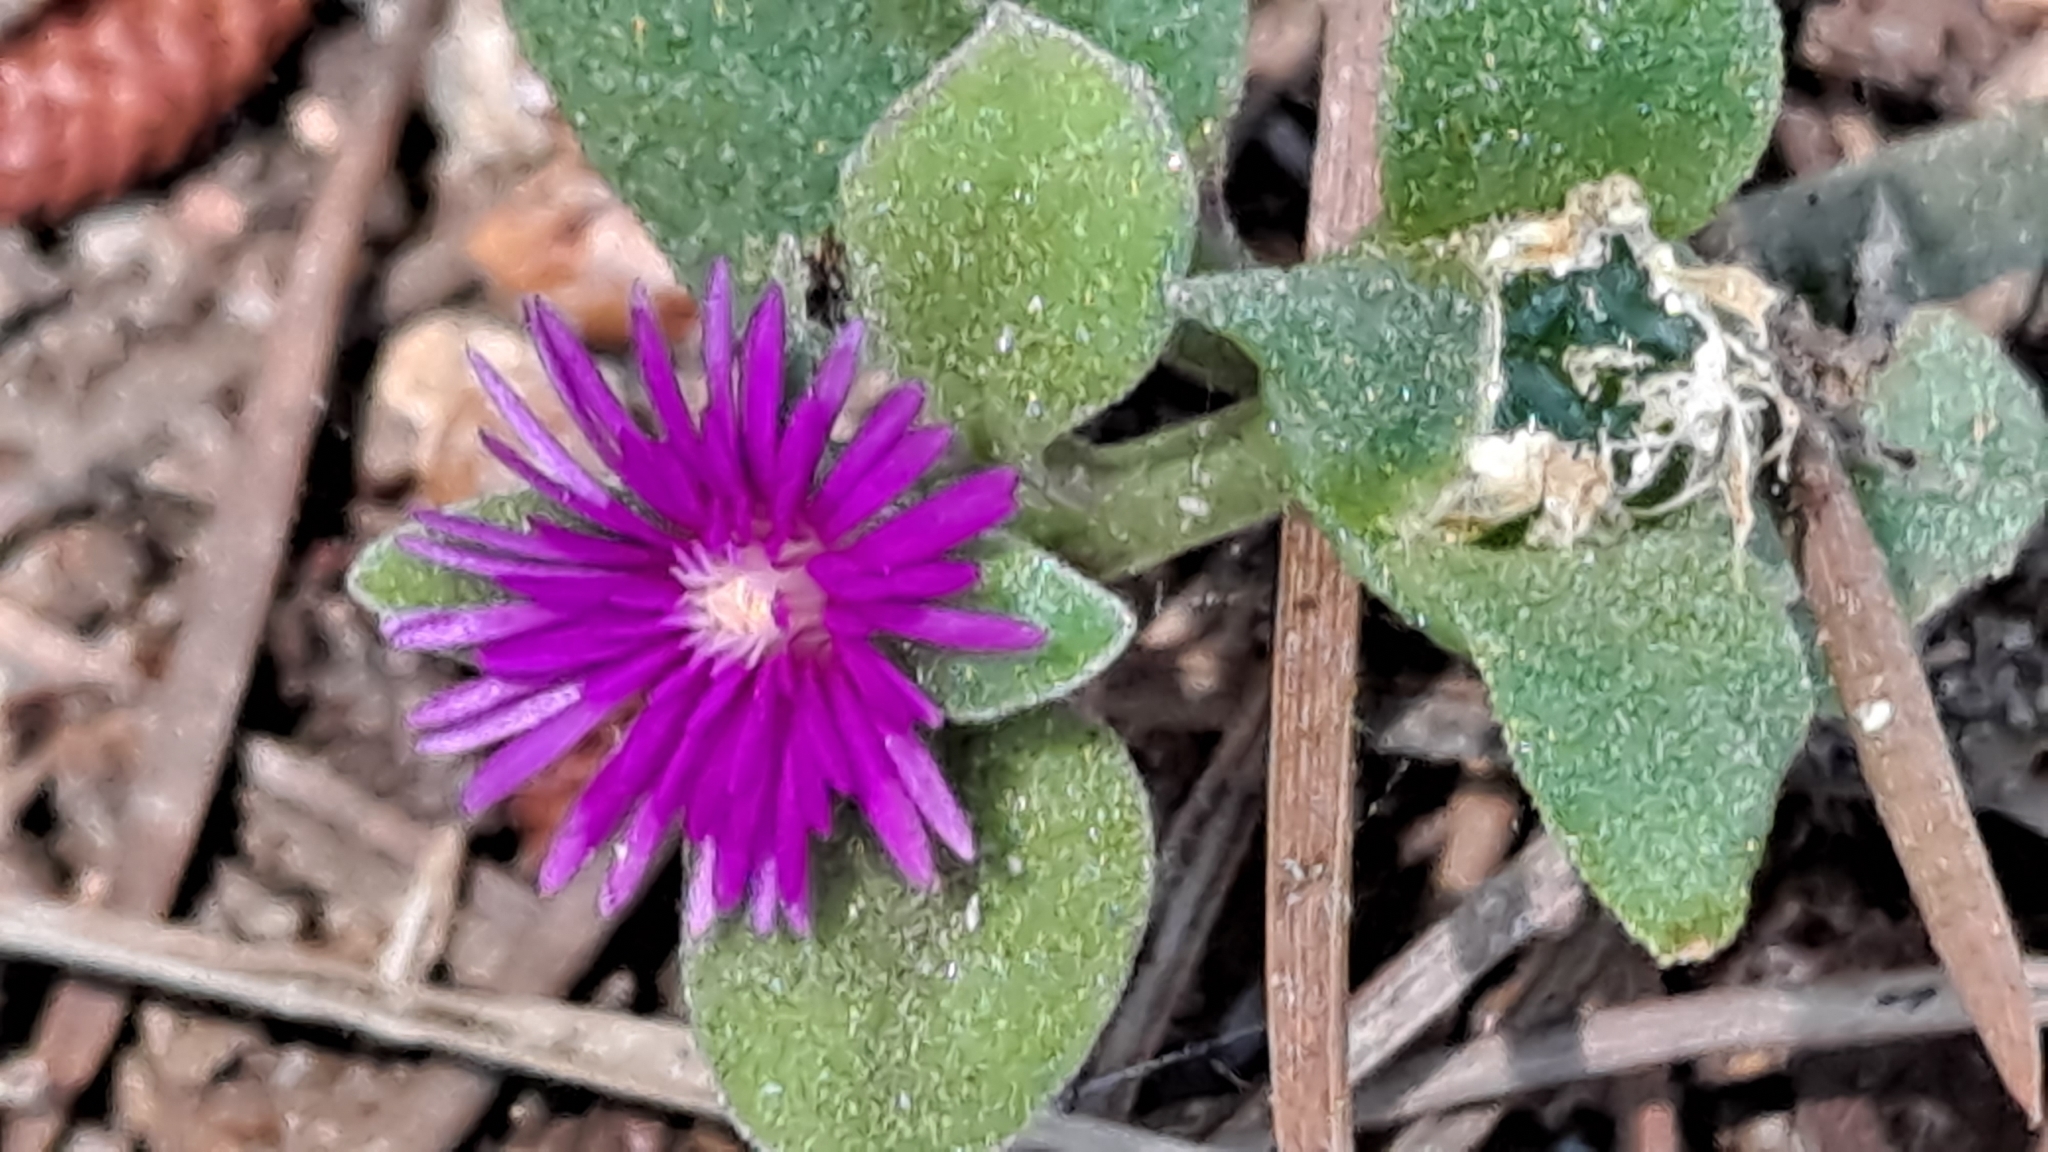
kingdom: Plantae
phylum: Tracheophyta
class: Magnoliopsida
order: Caryophyllales
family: Aizoaceae
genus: Mesembryanthemum
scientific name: Mesembryanthemum cordifolium
